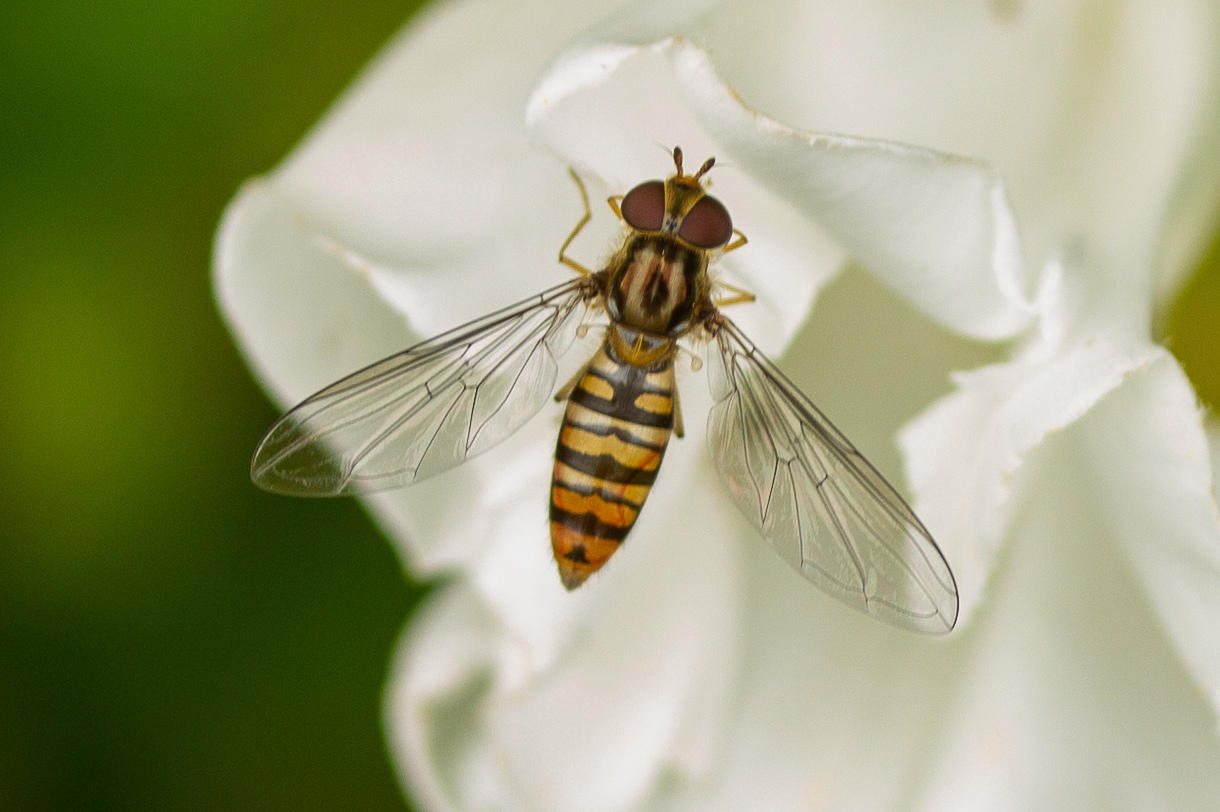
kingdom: Animalia
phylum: Arthropoda
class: Insecta
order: Diptera
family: Syrphidae
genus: Episyrphus
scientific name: Episyrphus balteatus
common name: Marmalade hoverfly
